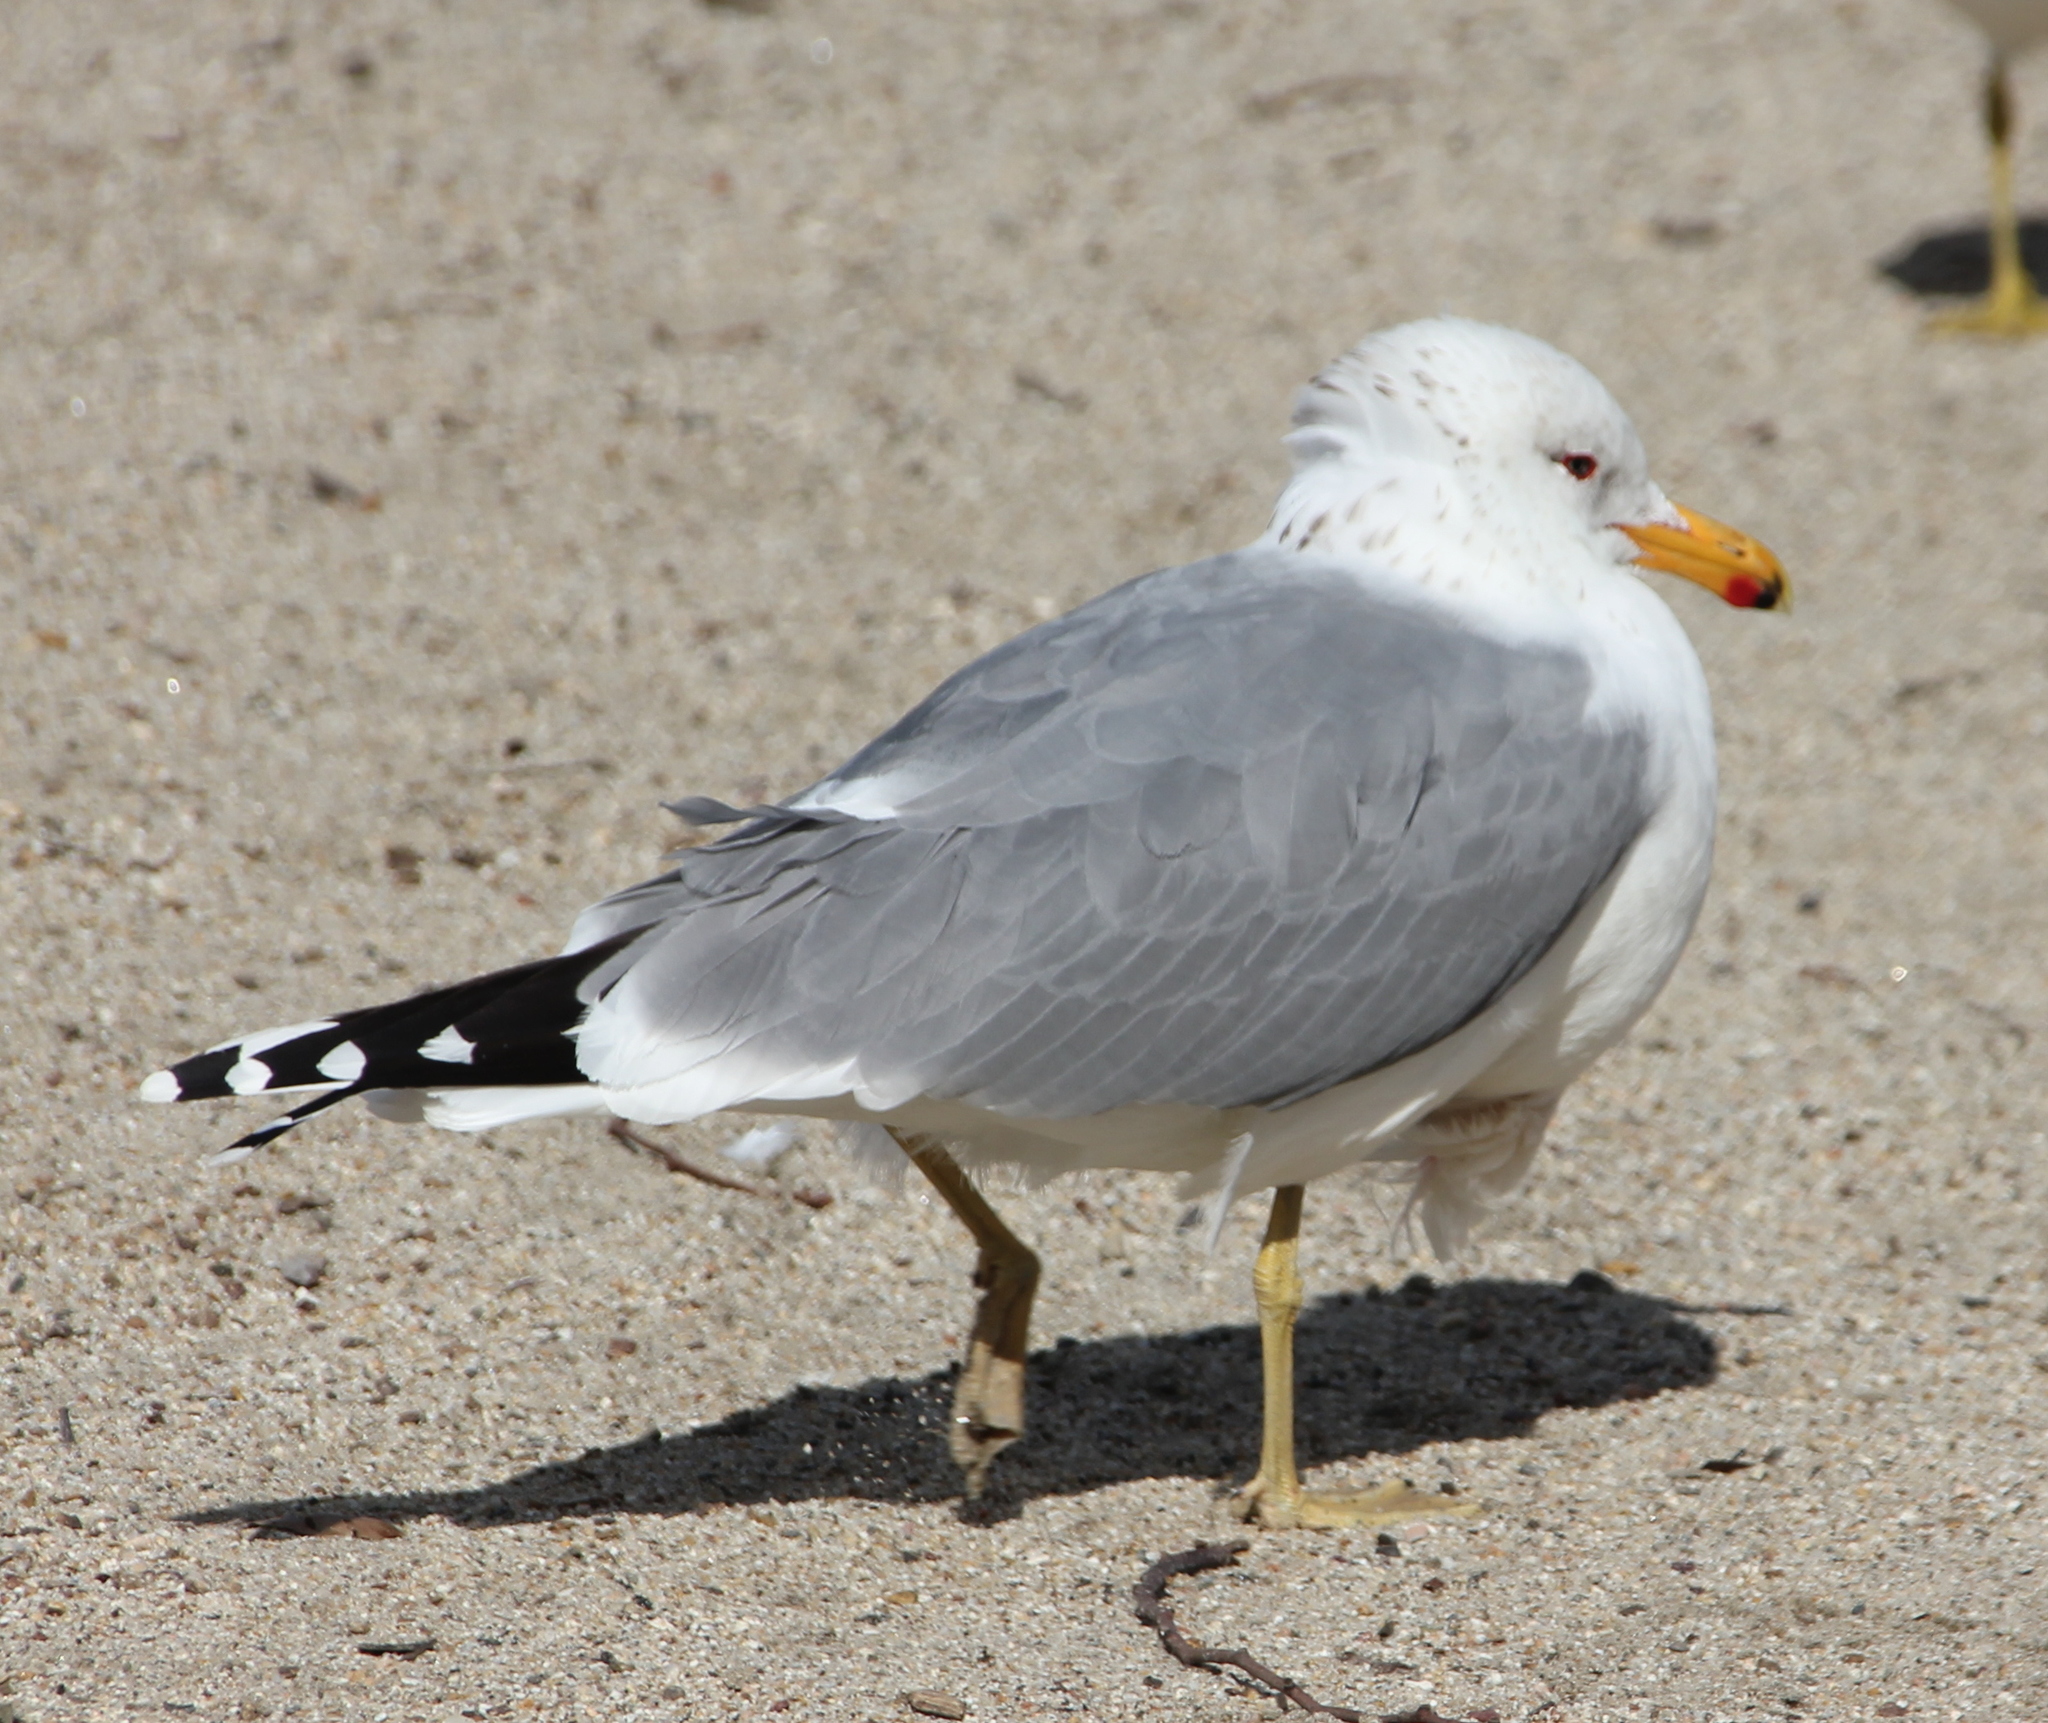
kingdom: Animalia
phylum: Chordata
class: Aves
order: Charadriiformes
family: Laridae
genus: Larus
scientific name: Larus californicus
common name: California gull
